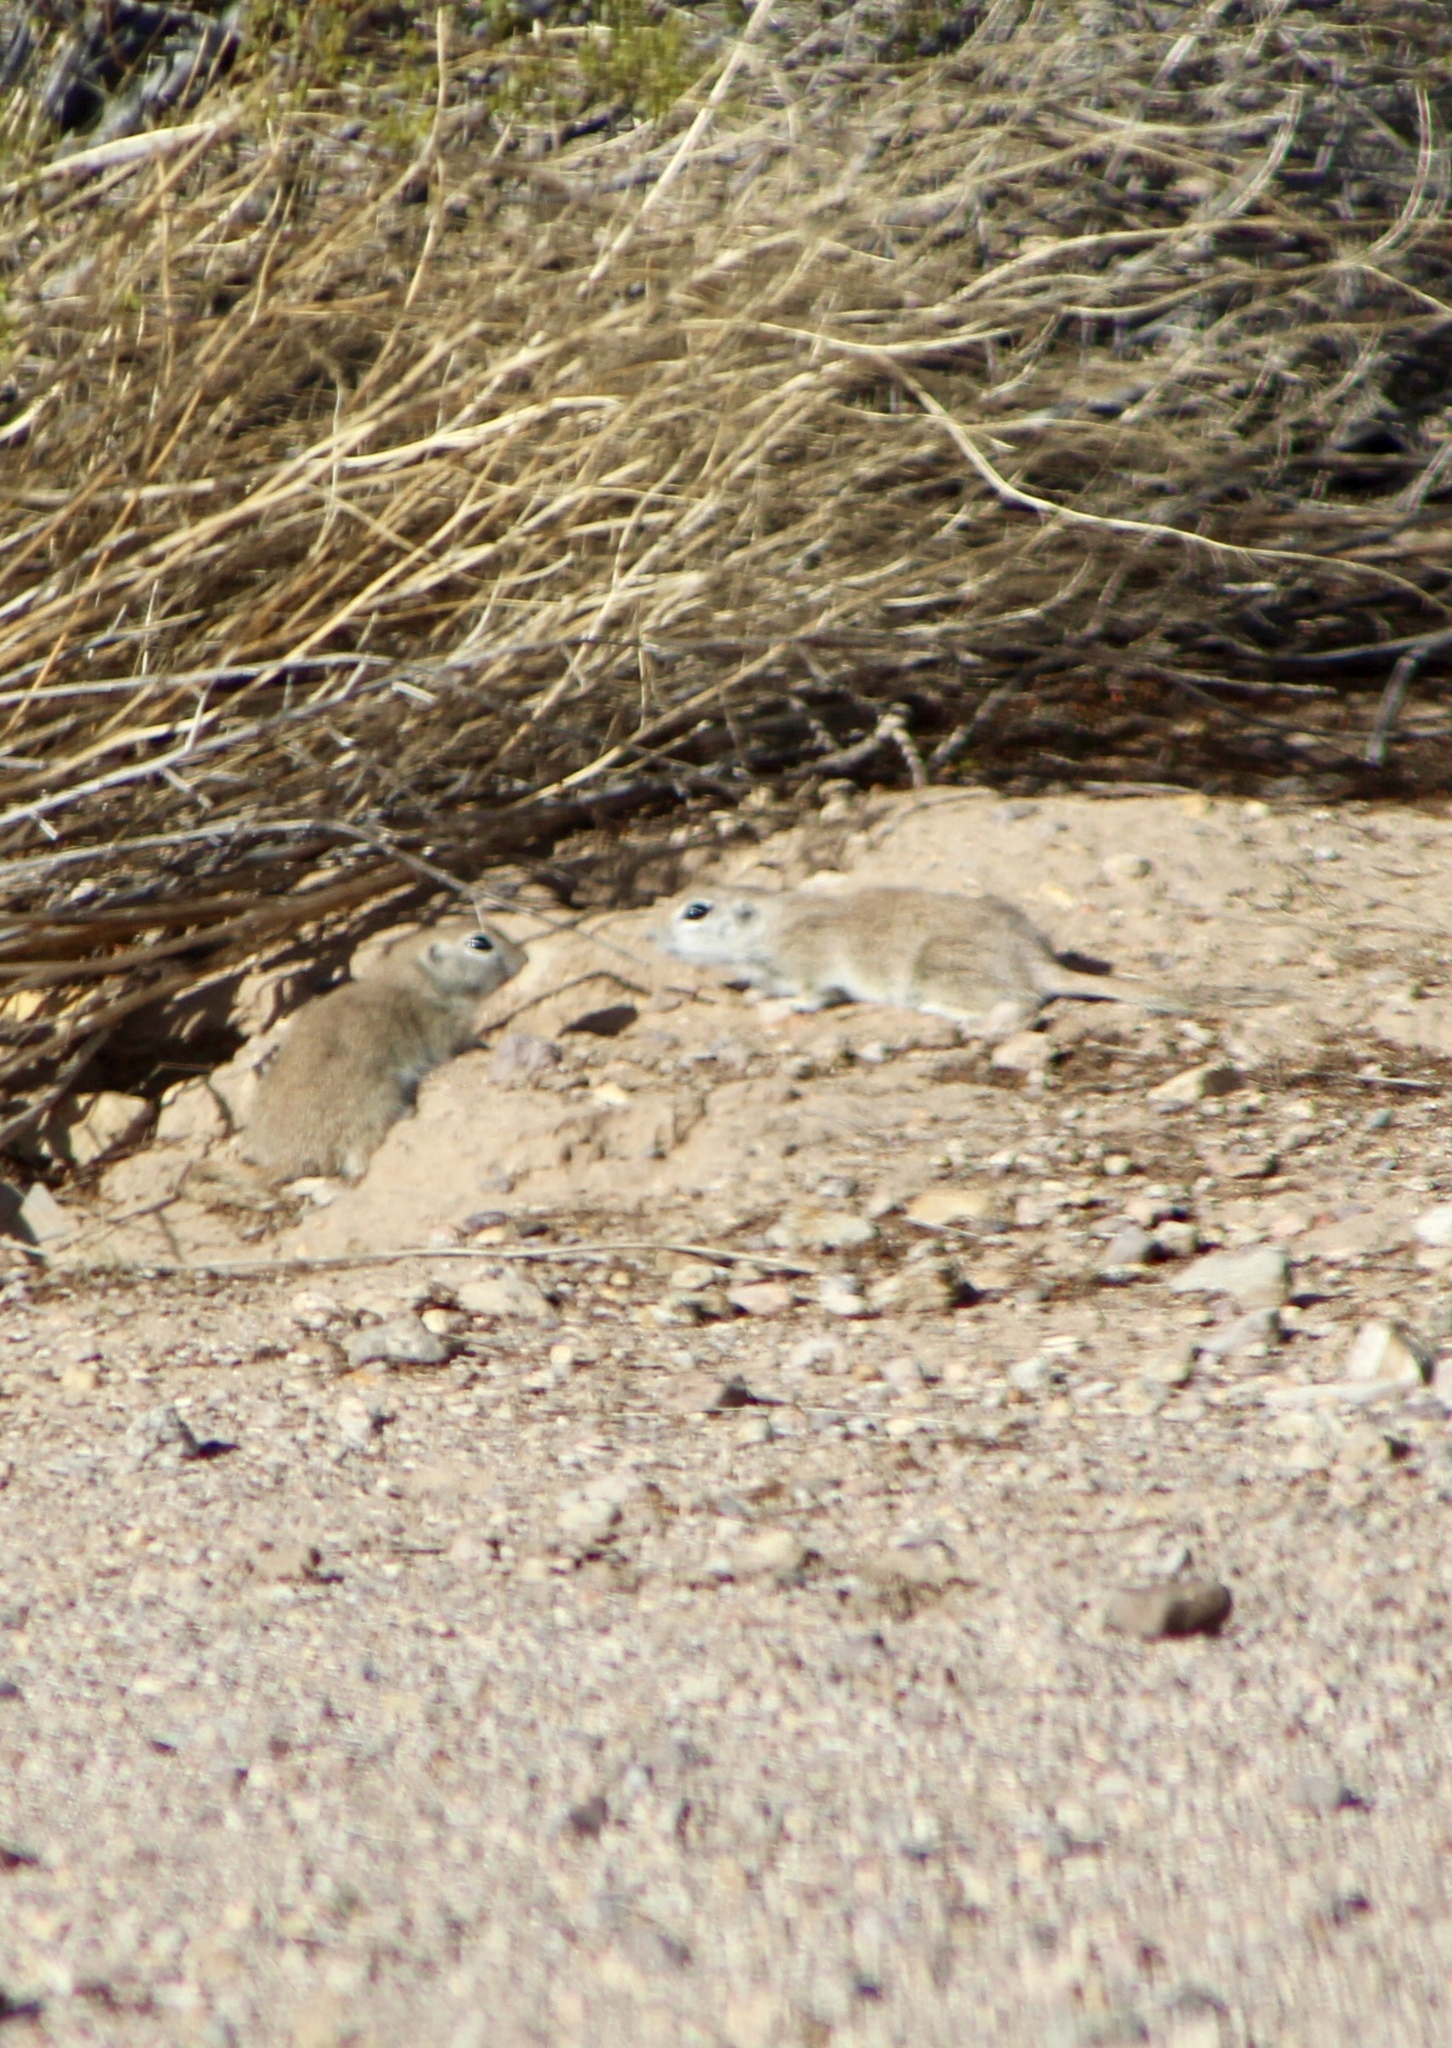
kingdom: Animalia
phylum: Chordata
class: Mammalia
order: Rodentia
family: Sciuridae
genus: Xerospermophilus
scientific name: Xerospermophilus tereticaudus
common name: Round-tailed ground squirrel
